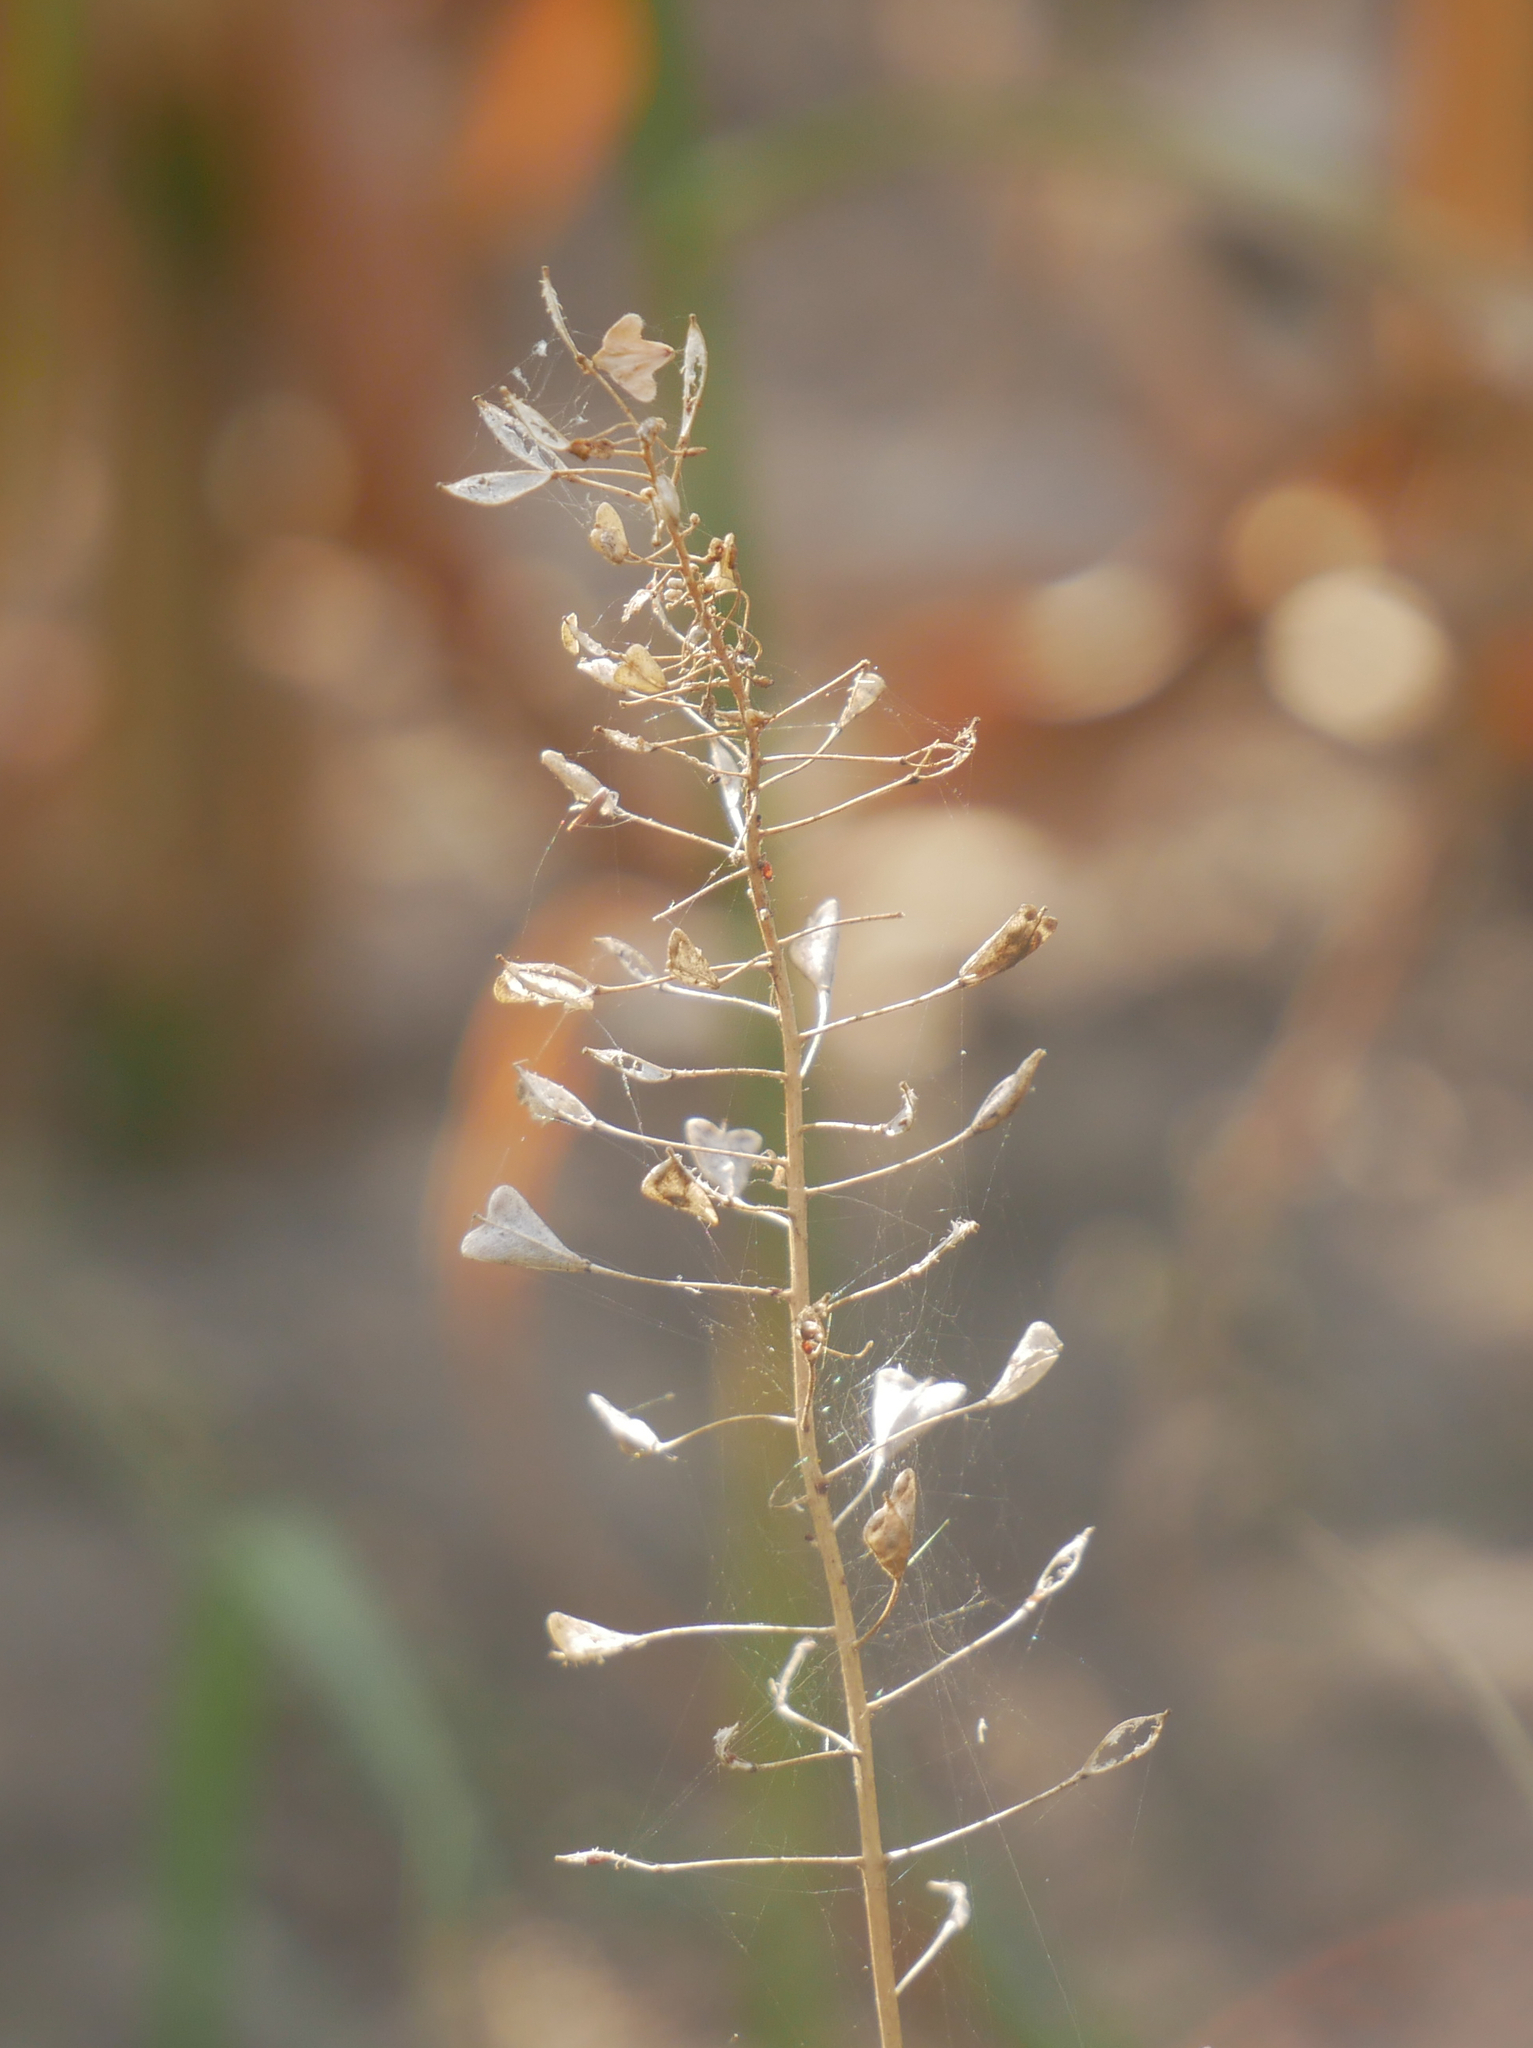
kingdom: Plantae
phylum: Tracheophyta
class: Magnoliopsida
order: Brassicales
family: Brassicaceae
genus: Capsella
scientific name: Capsella bursa-pastoris
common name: Shepherd's purse
